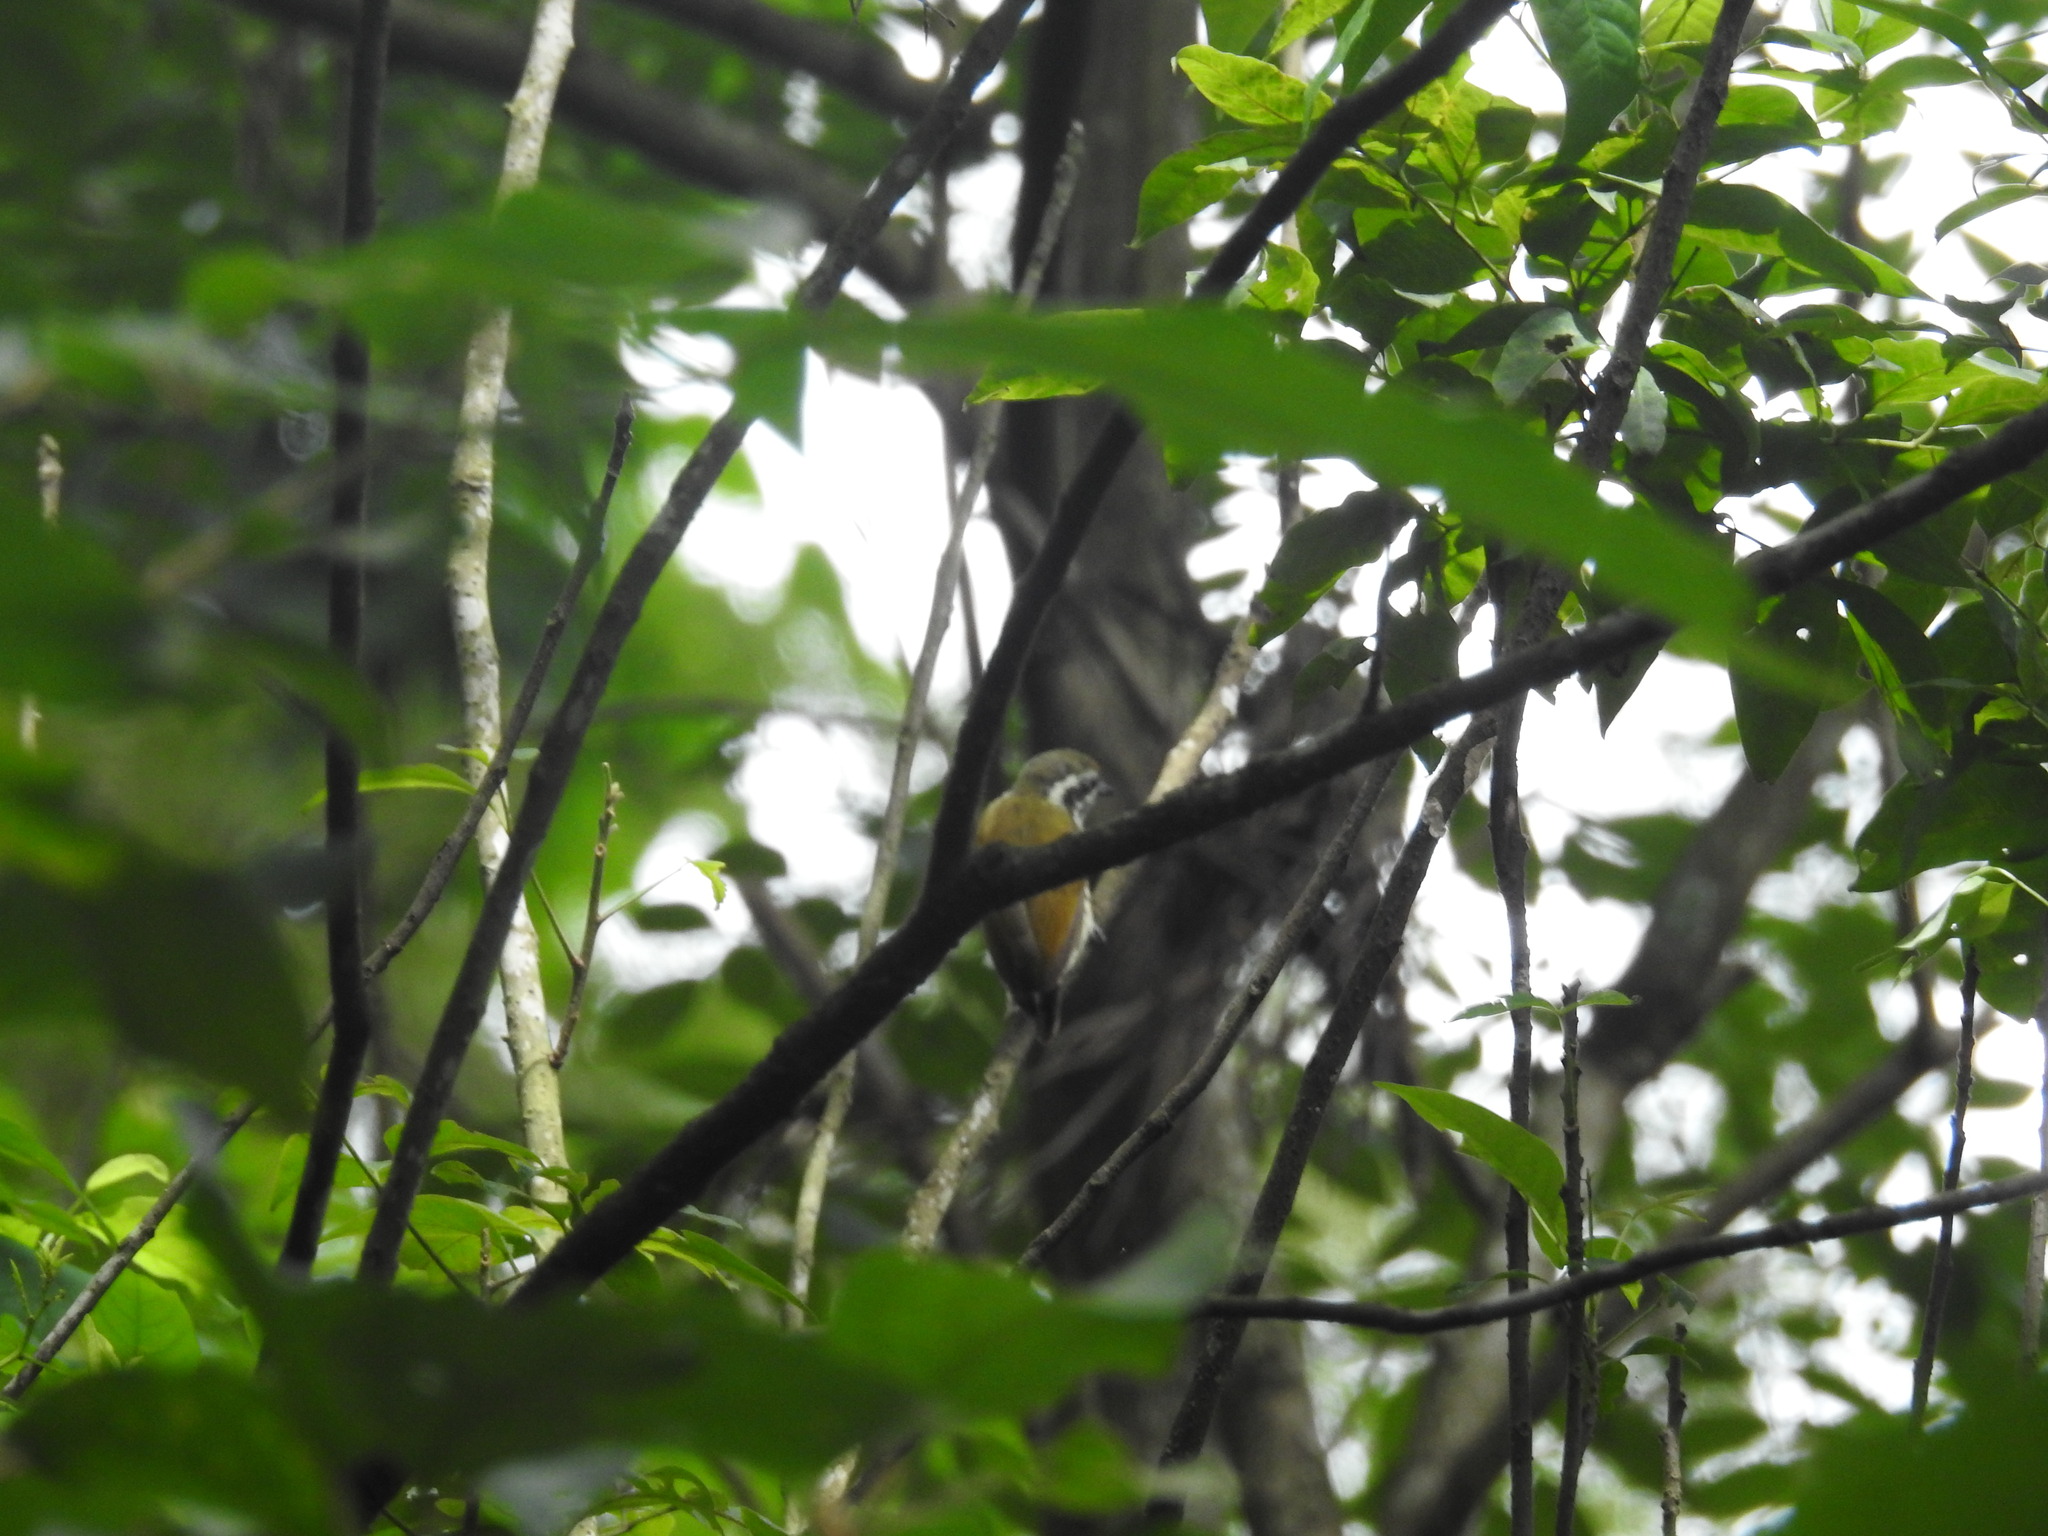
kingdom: Animalia
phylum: Chordata
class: Aves
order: Piciformes
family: Picidae
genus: Picumnus
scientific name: Picumnus innominatus
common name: Speckled piculet
